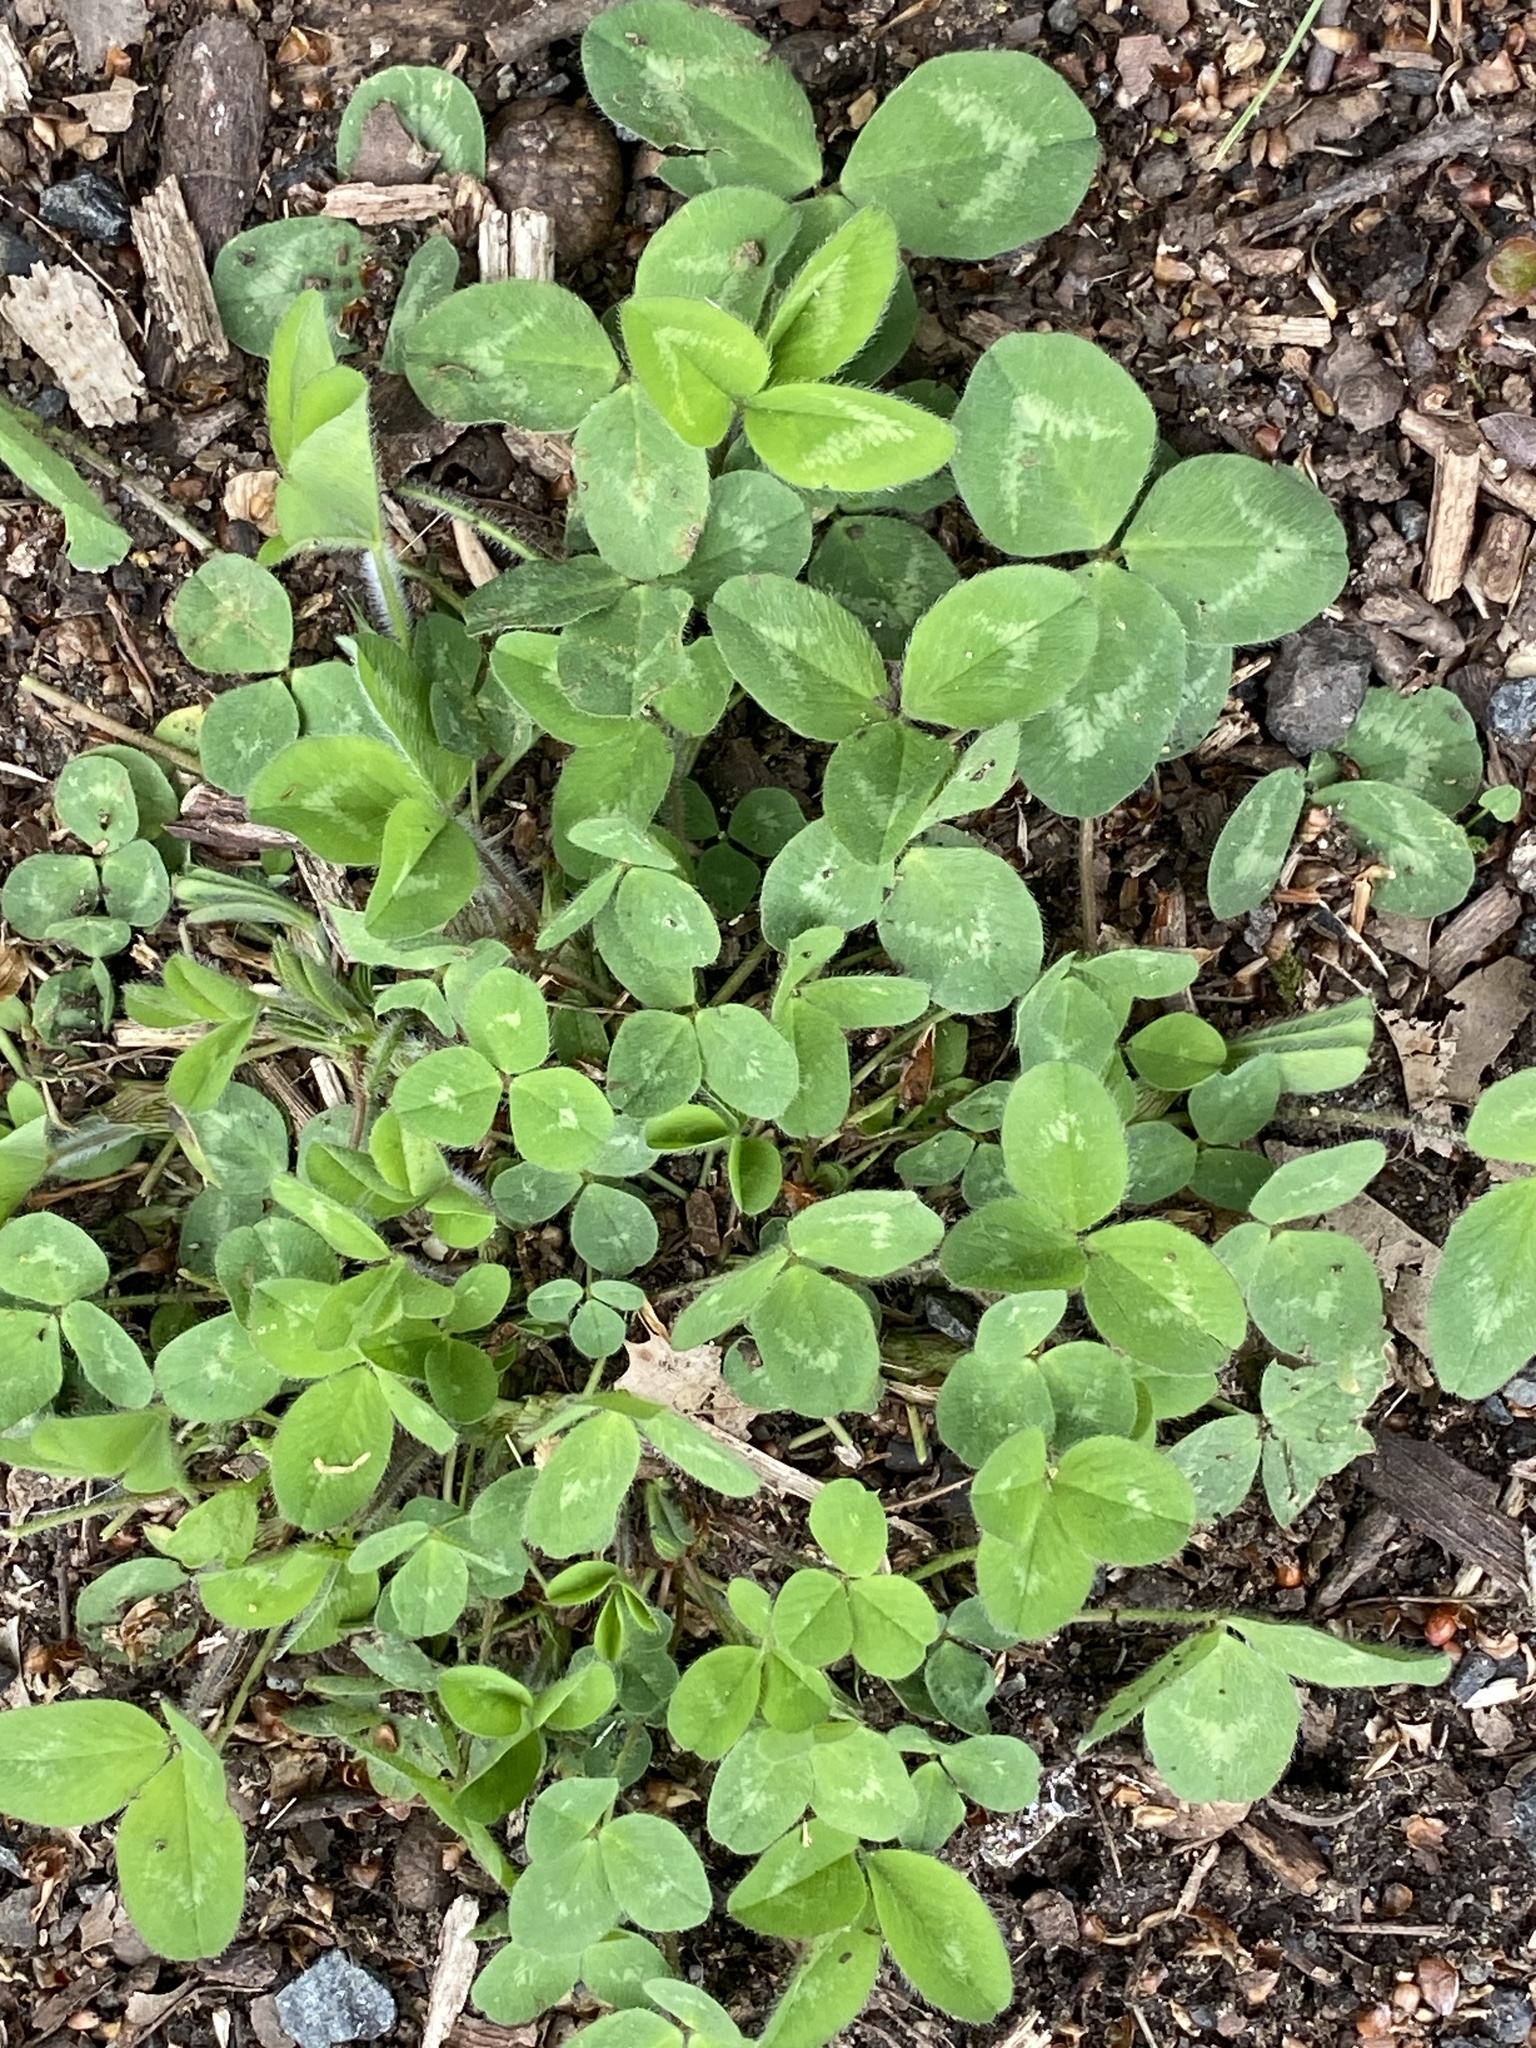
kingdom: Plantae
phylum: Tracheophyta
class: Magnoliopsida
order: Fabales
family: Fabaceae
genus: Trifolium
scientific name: Trifolium pratense
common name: Red clover
